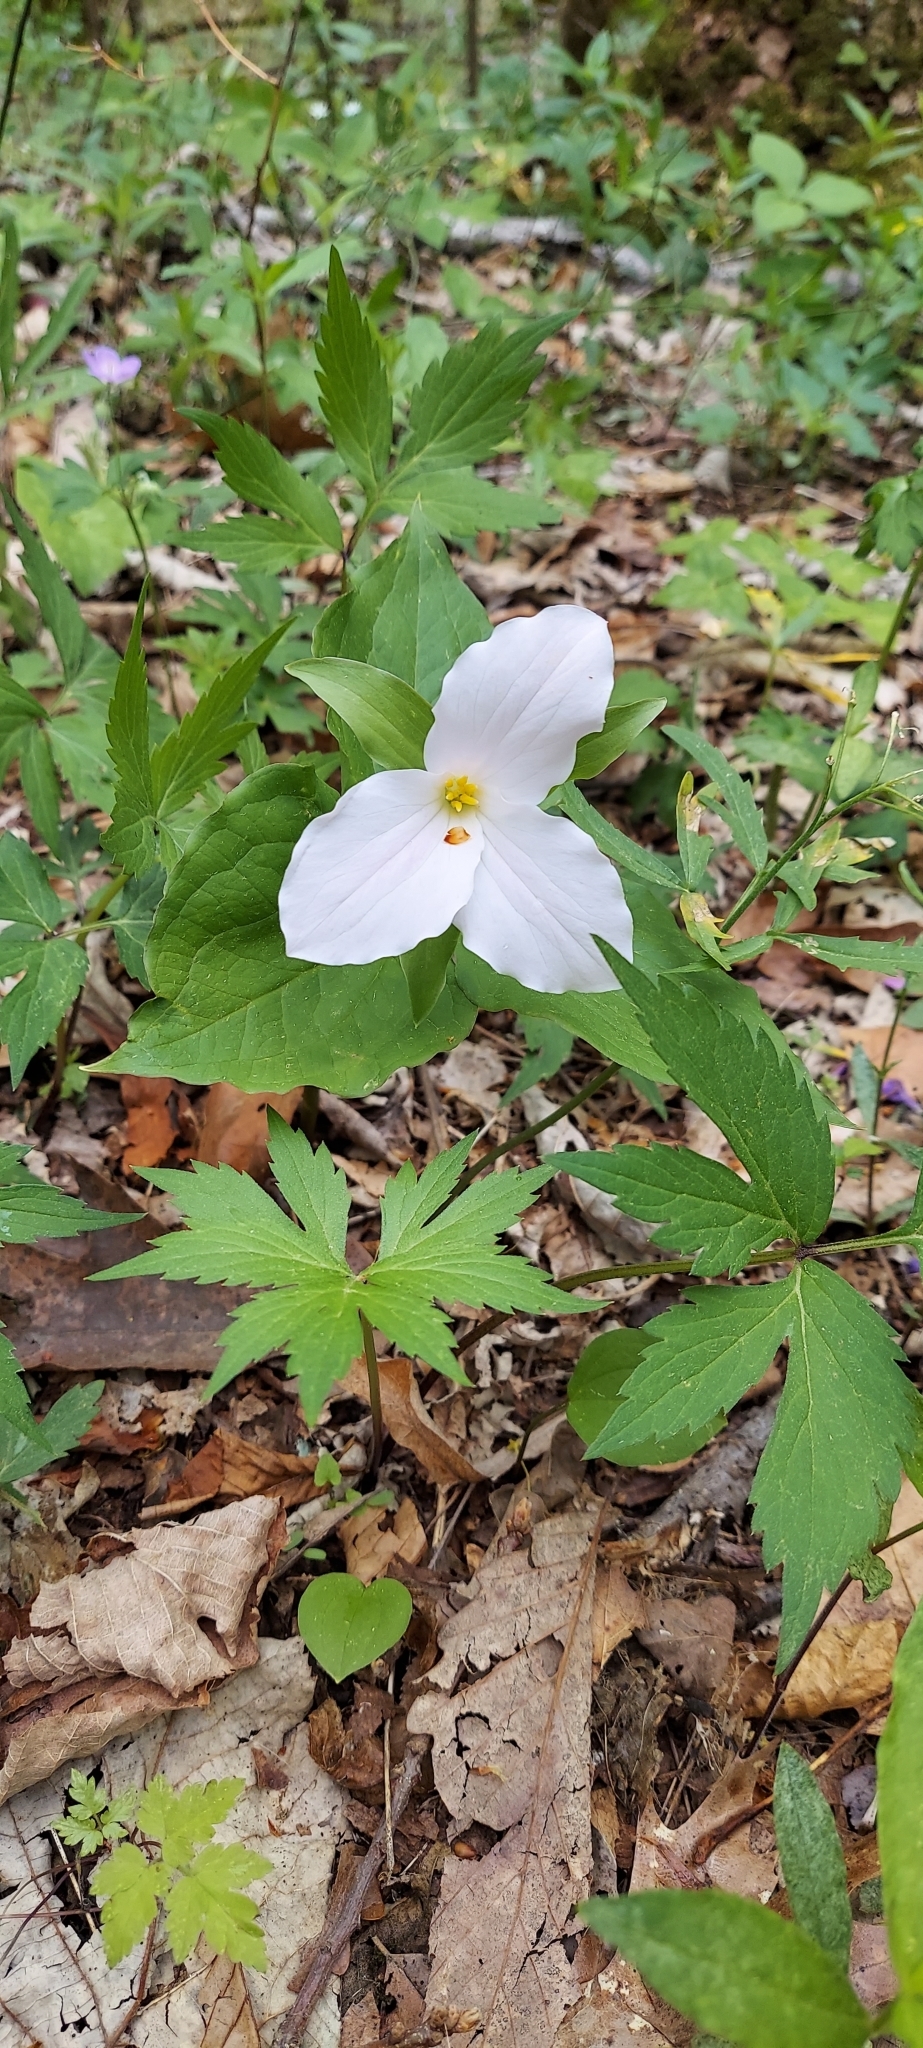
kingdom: Plantae
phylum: Tracheophyta
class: Liliopsida
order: Liliales
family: Melanthiaceae
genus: Trillium
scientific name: Trillium grandiflorum
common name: Great white trillium
